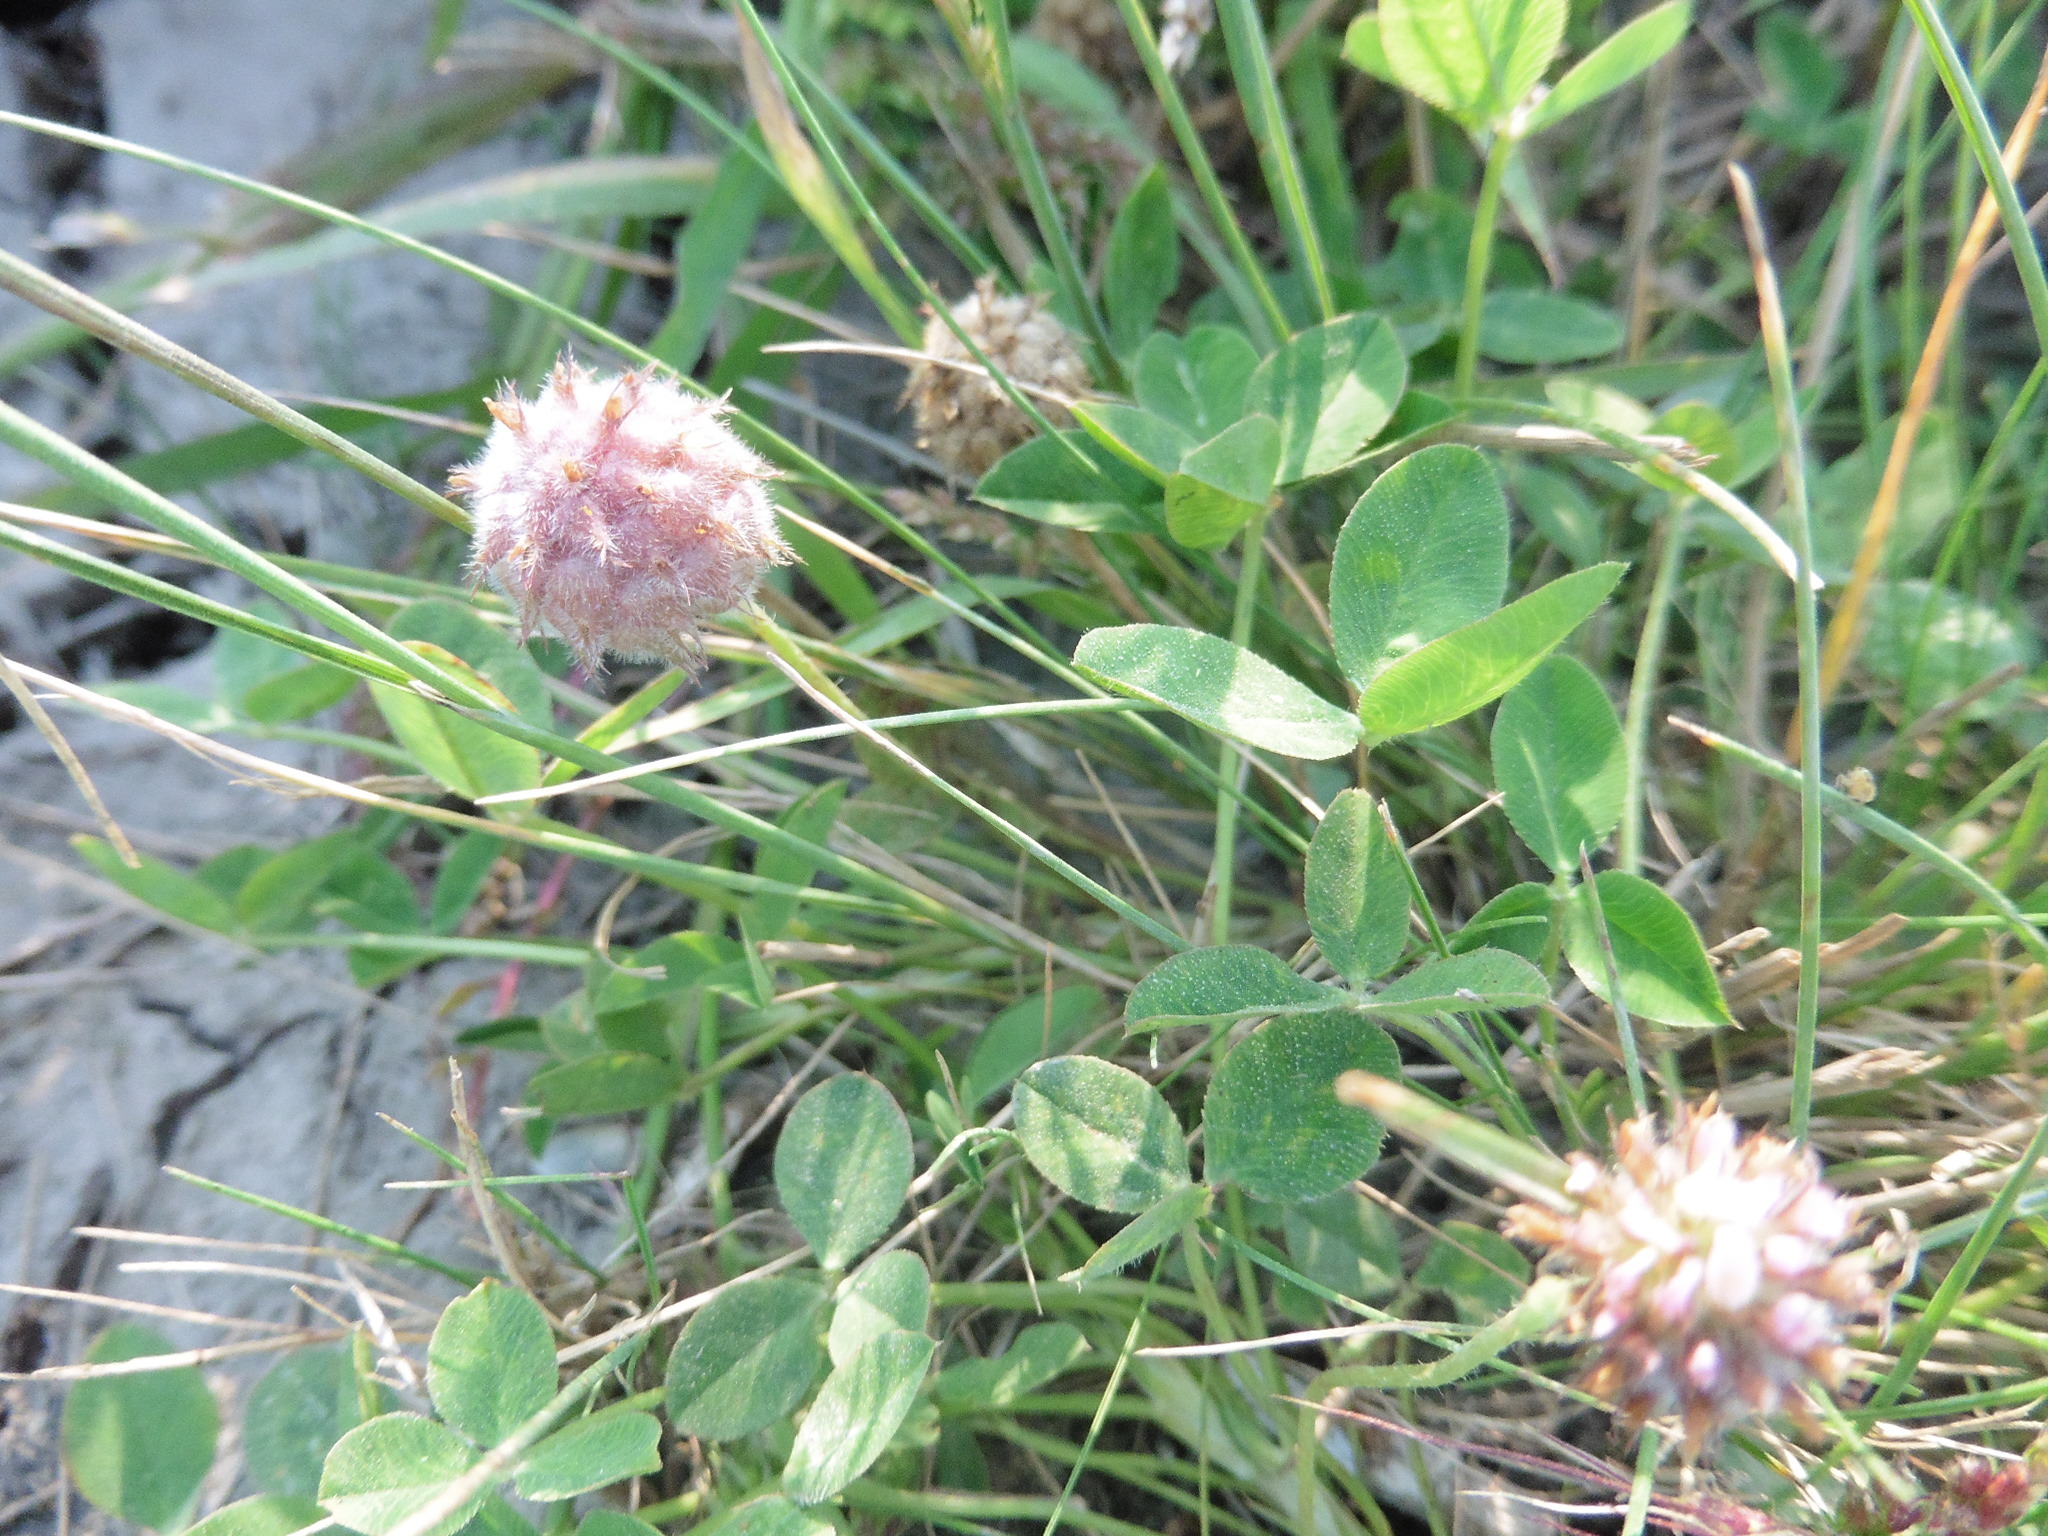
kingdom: Plantae
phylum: Tracheophyta
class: Magnoliopsida
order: Fabales
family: Fabaceae
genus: Trifolium
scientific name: Trifolium fragiferum
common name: Strawberry clover
